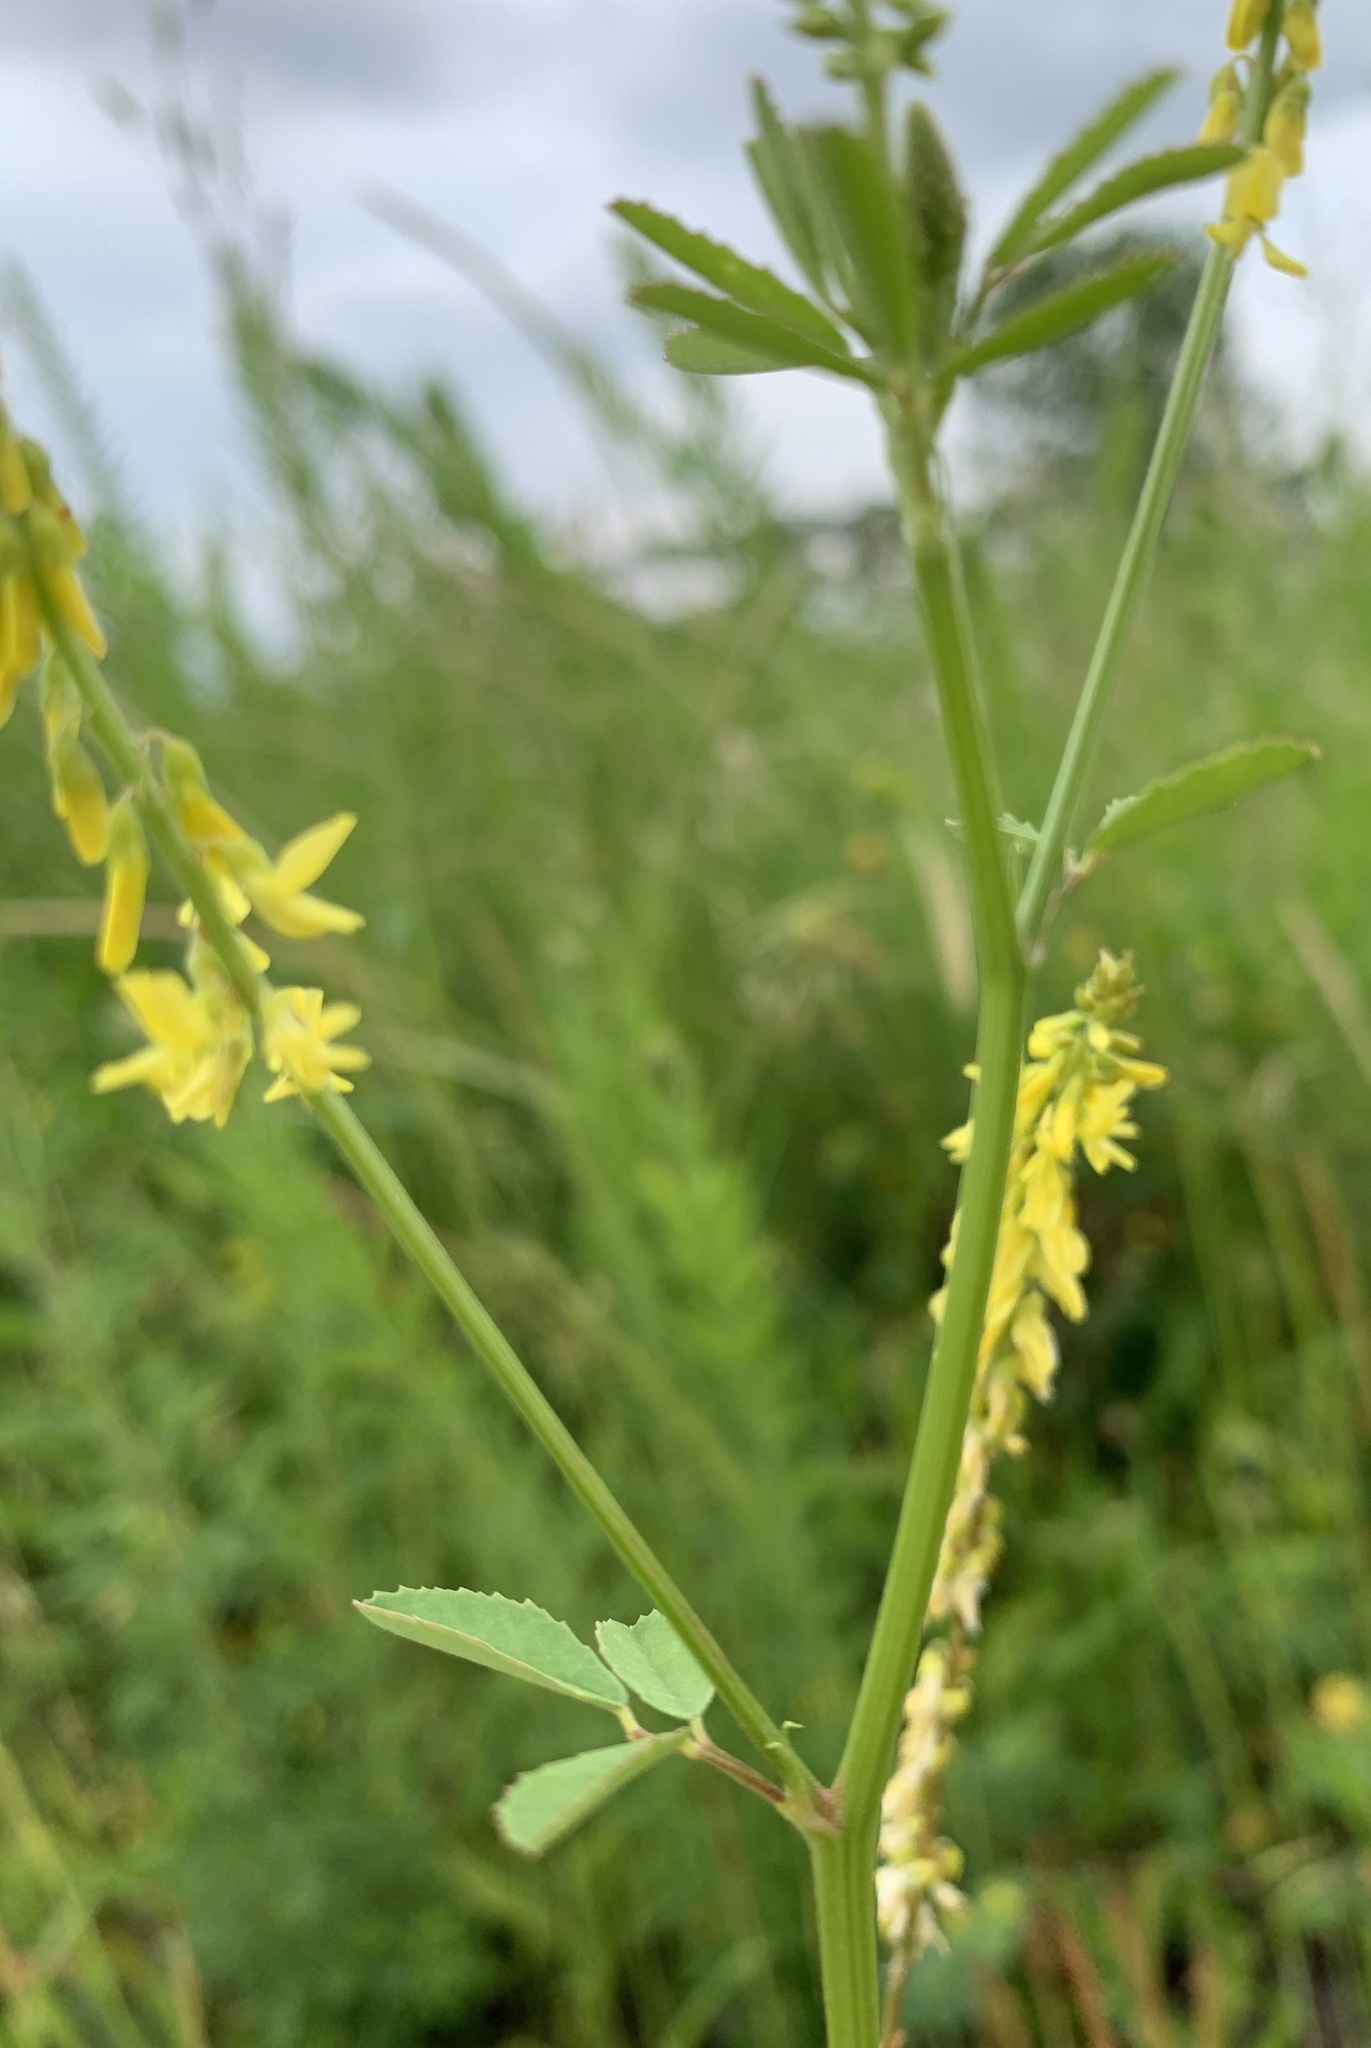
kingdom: Plantae
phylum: Tracheophyta
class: Magnoliopsida
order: Fabales
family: Fabaceae
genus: Melilotus
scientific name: Melilotus officinalis
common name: Sweetclover
